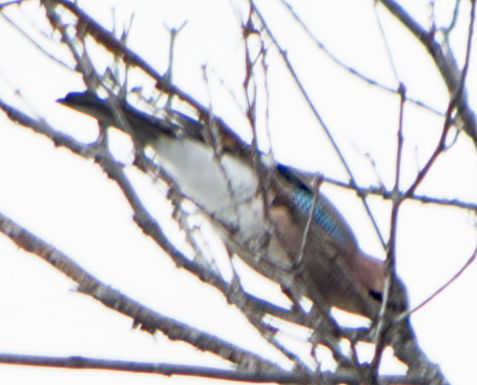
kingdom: Animalia
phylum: Chordata
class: Aves
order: Passeriformes
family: Corvidae
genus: Garrulus
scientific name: Garrulus glandarius
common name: Eurasian jay
